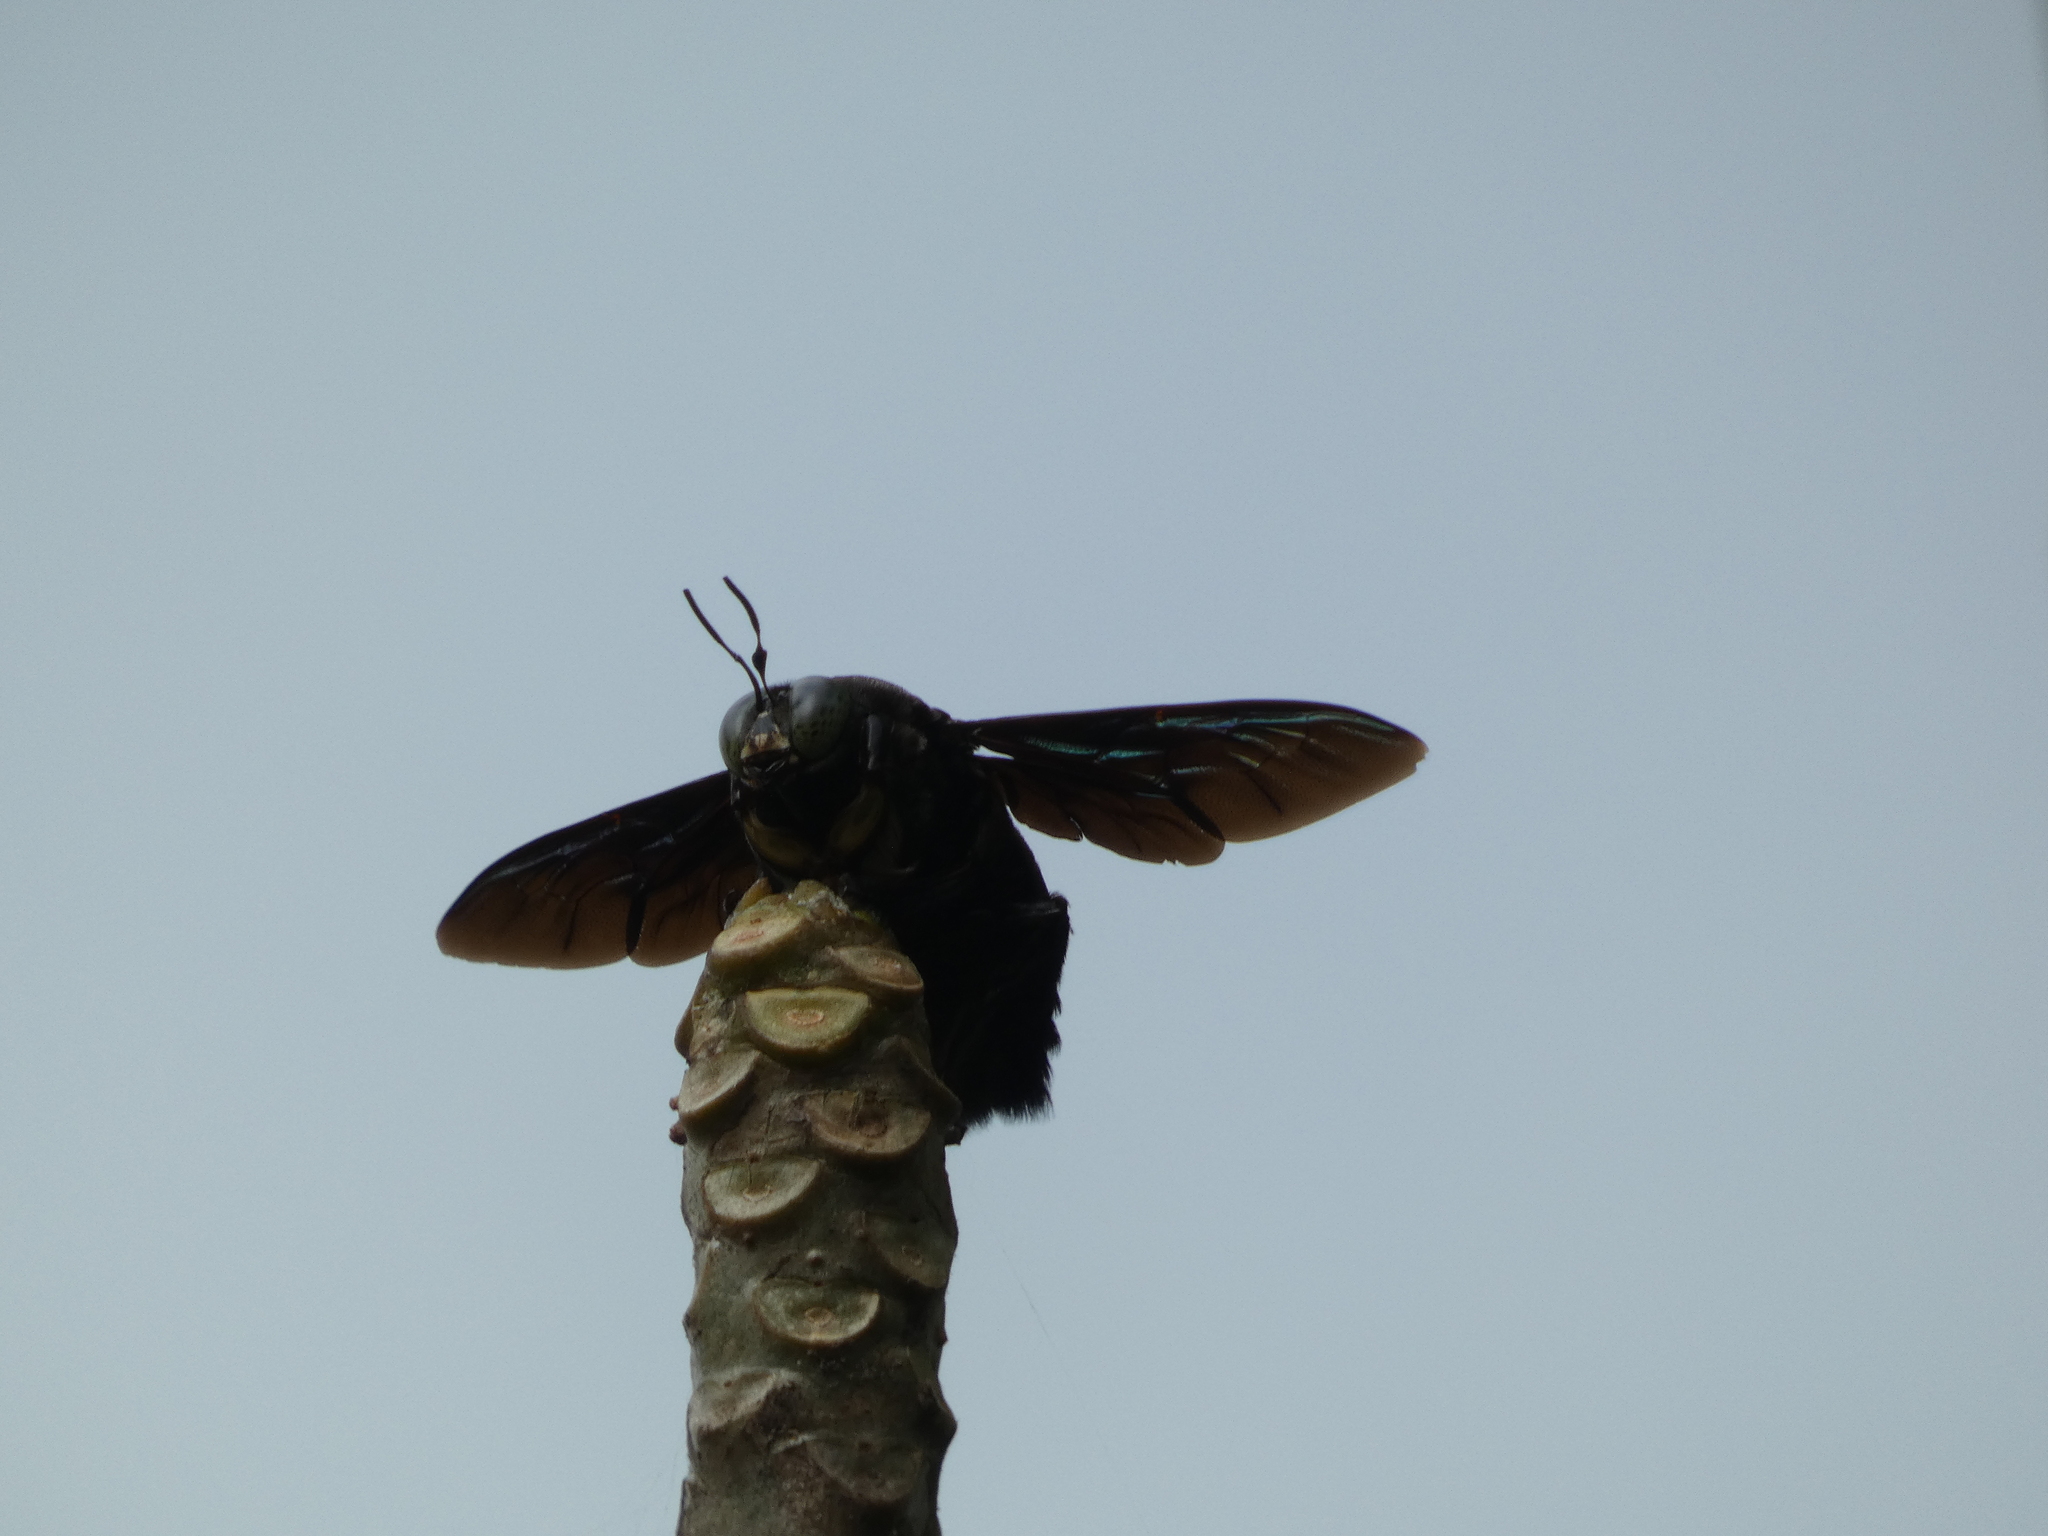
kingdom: Animalia
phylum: Arthropoda
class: Insecta
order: Hymenoptera
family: Apidae
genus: Xylocopa
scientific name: Xylocopa latipes
